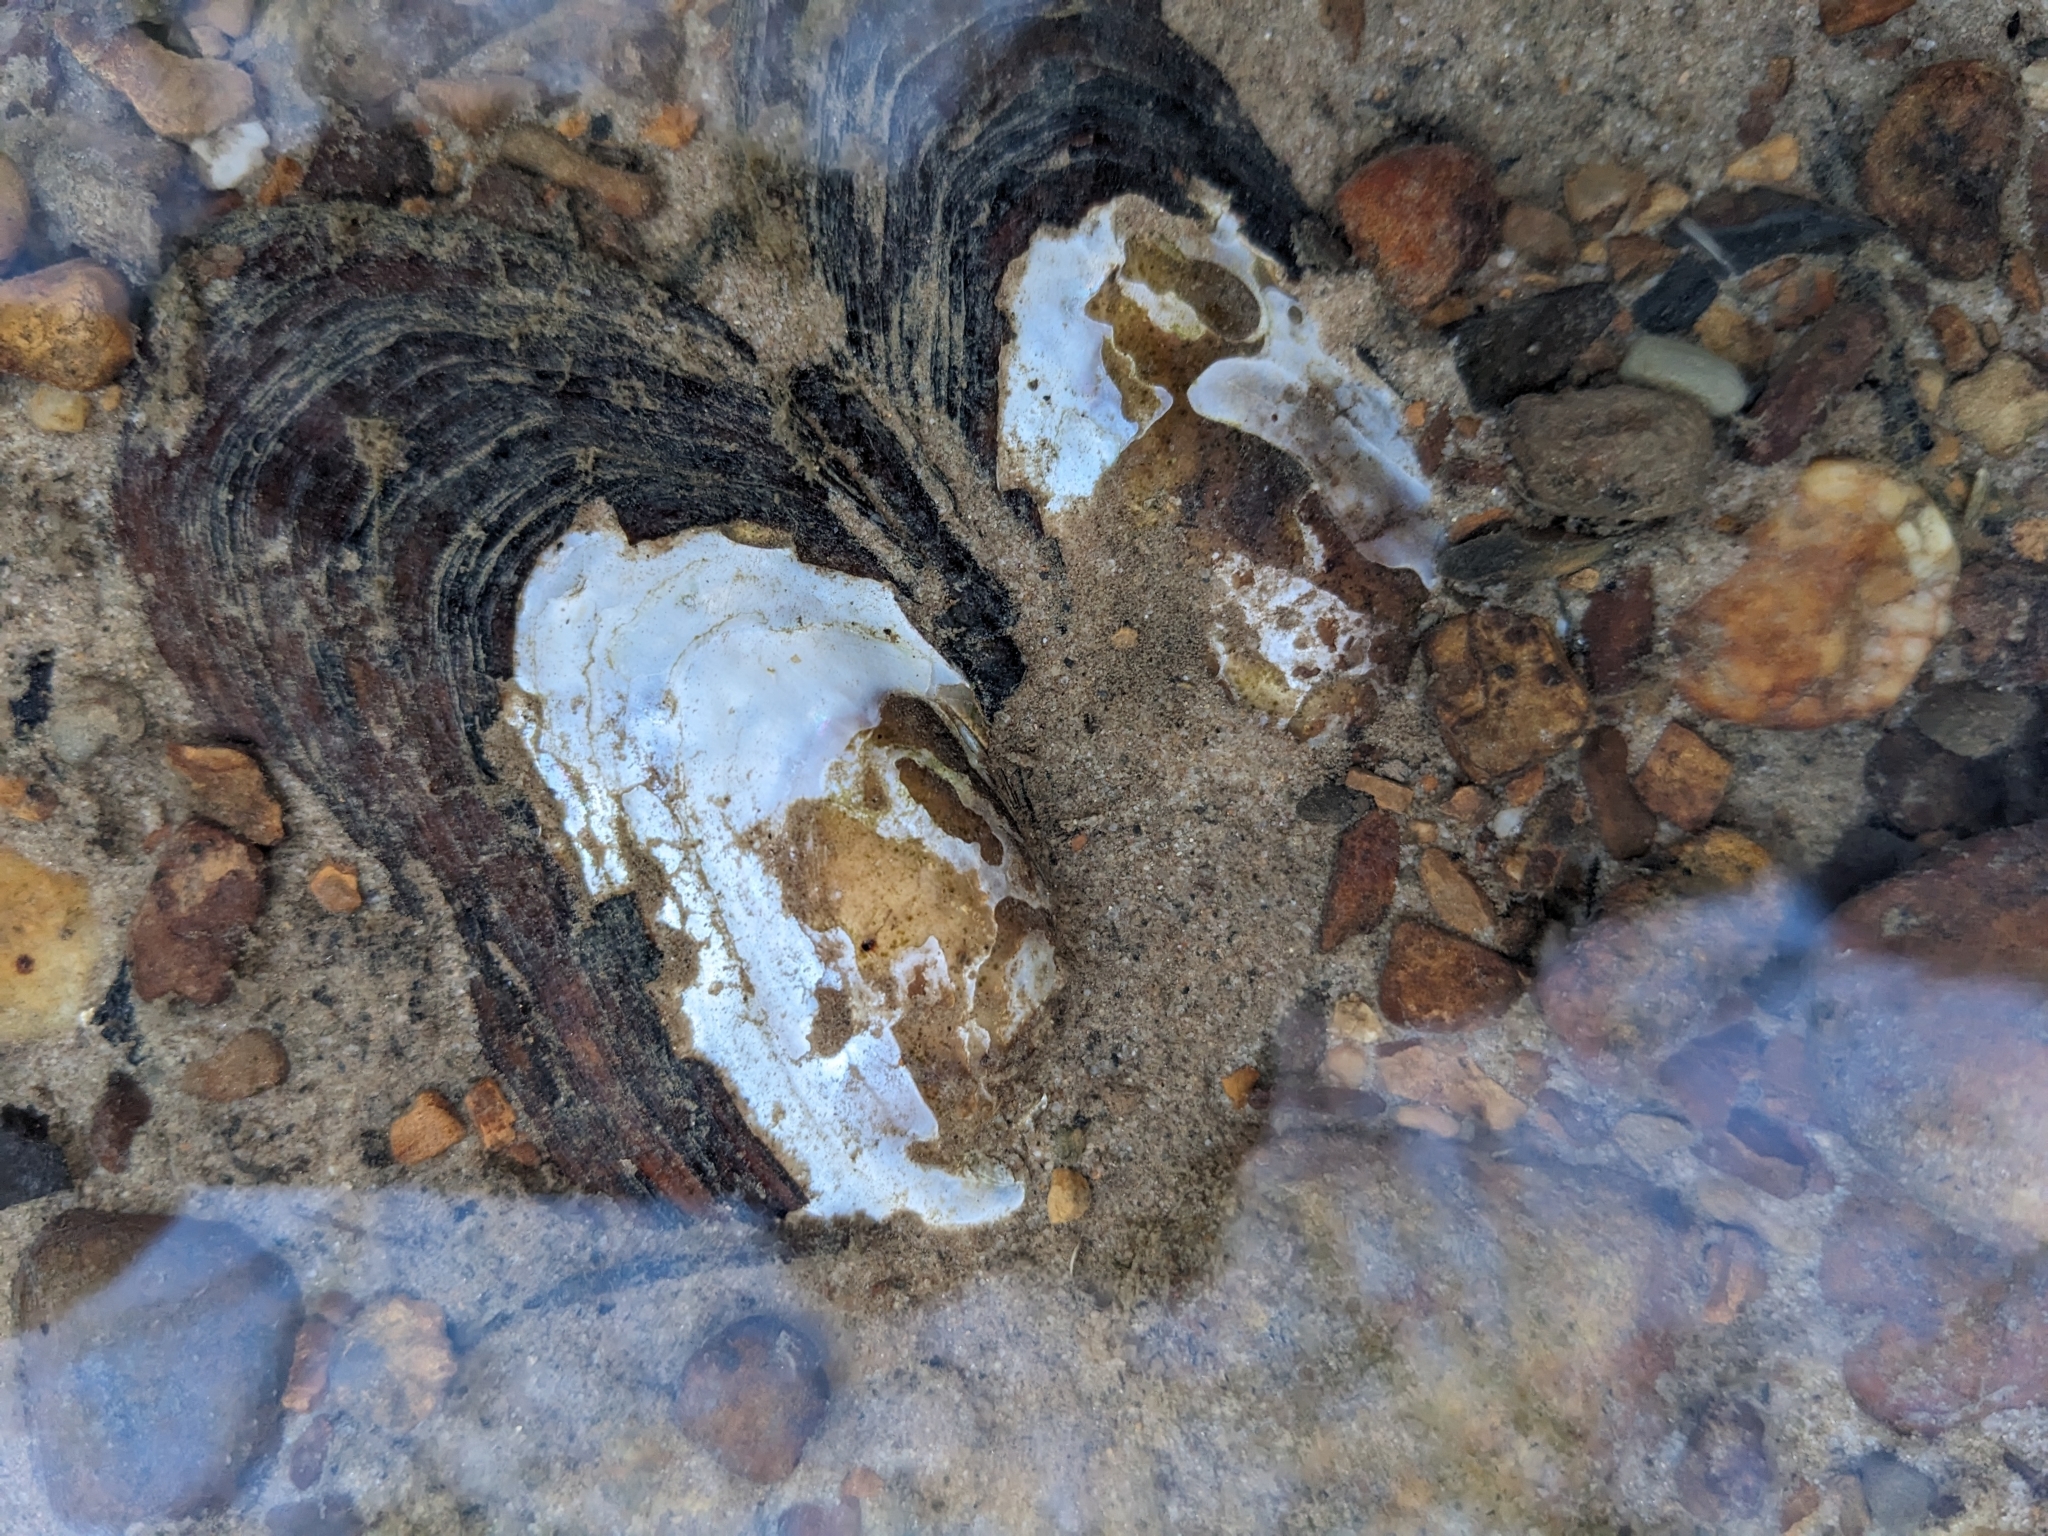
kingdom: Animalia
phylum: Mollusca
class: Bivalvia
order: Unionida
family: Unionidae
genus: Elliptio
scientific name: Elliptio complanata
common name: Eastern elliptio
